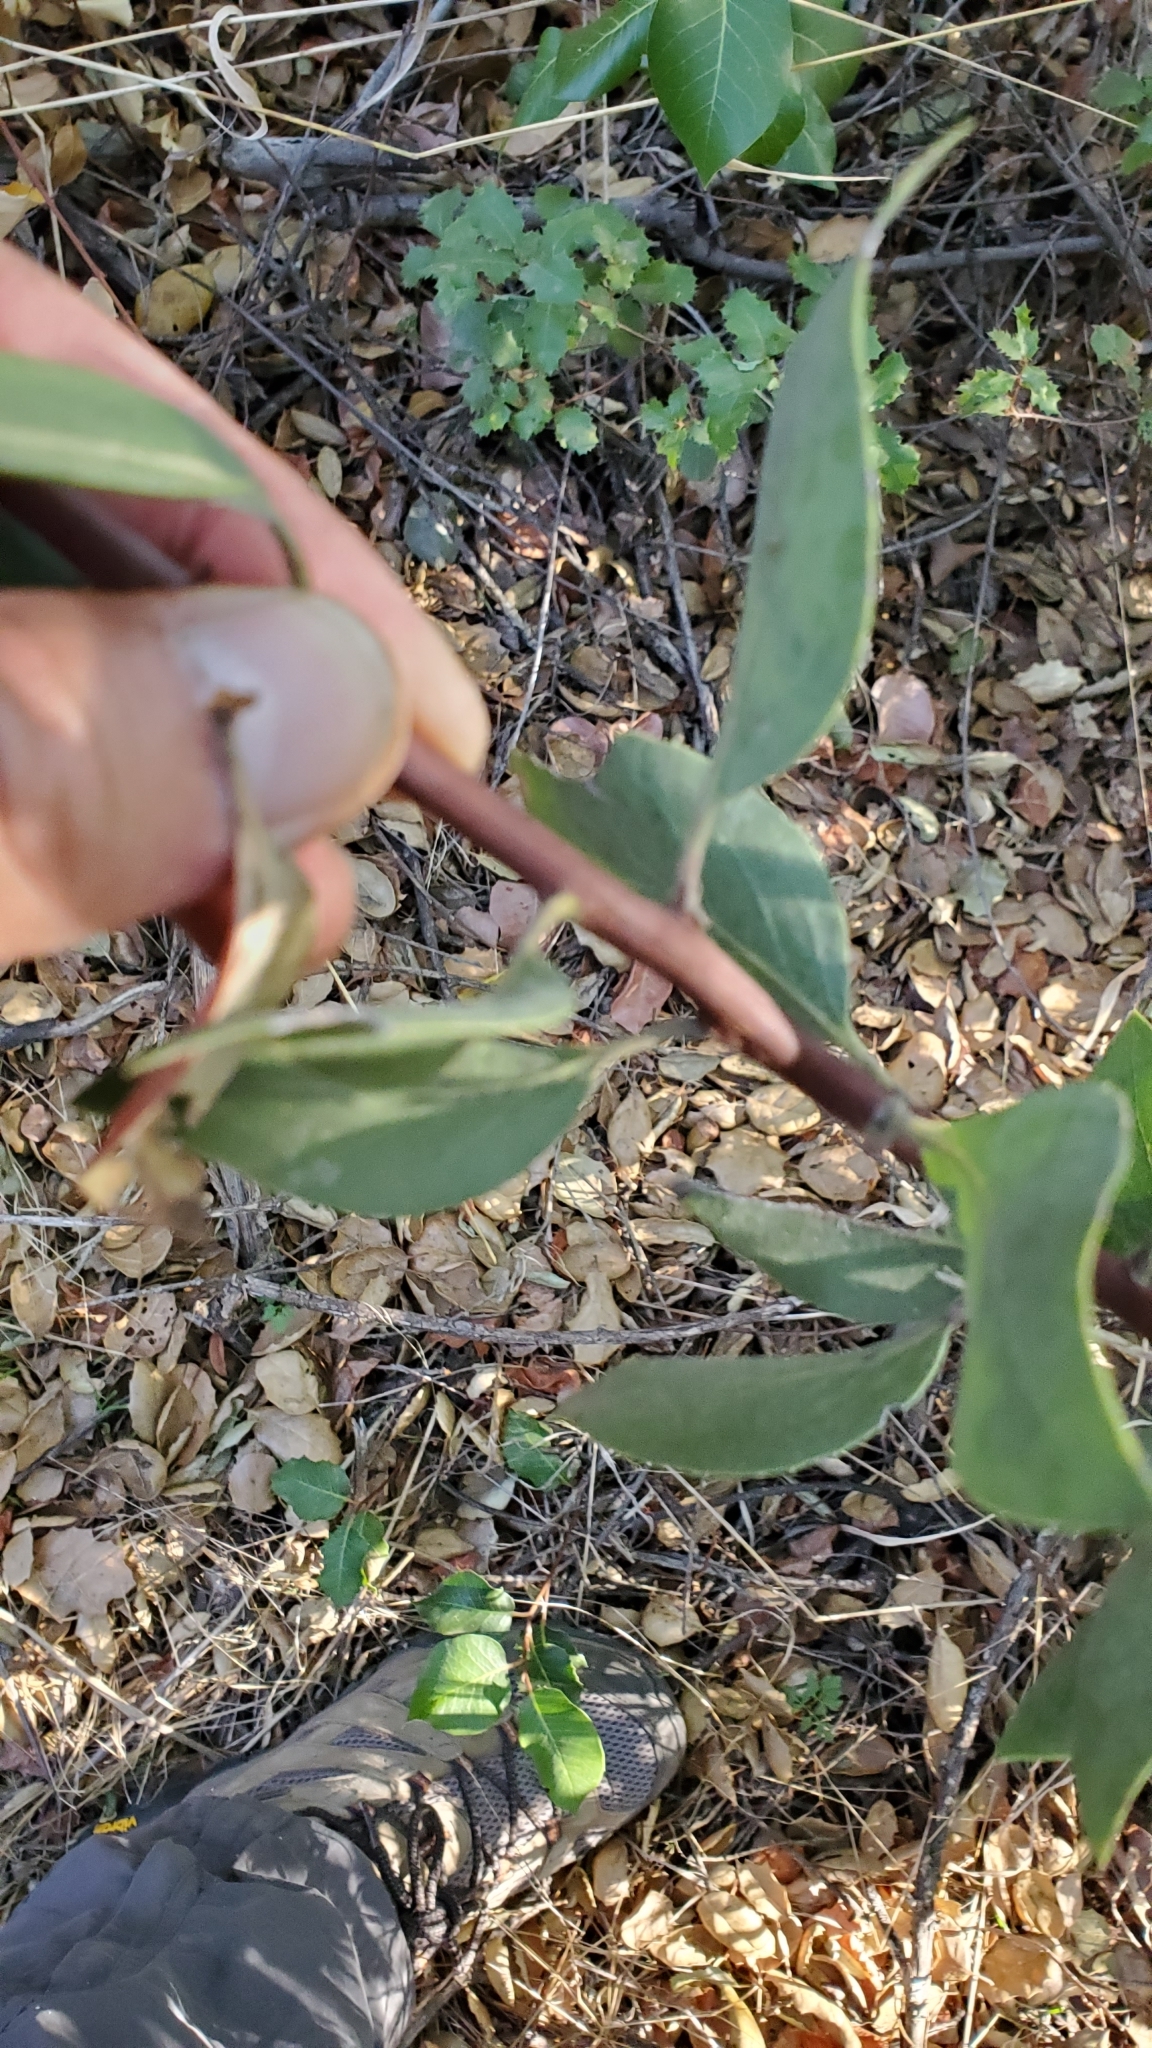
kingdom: Plantae
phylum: Tracheophyta
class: Magnoliopsida
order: Ericales
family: Ericaceae
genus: Arctostaphylos
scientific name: Arctostaphylos glandulosa
